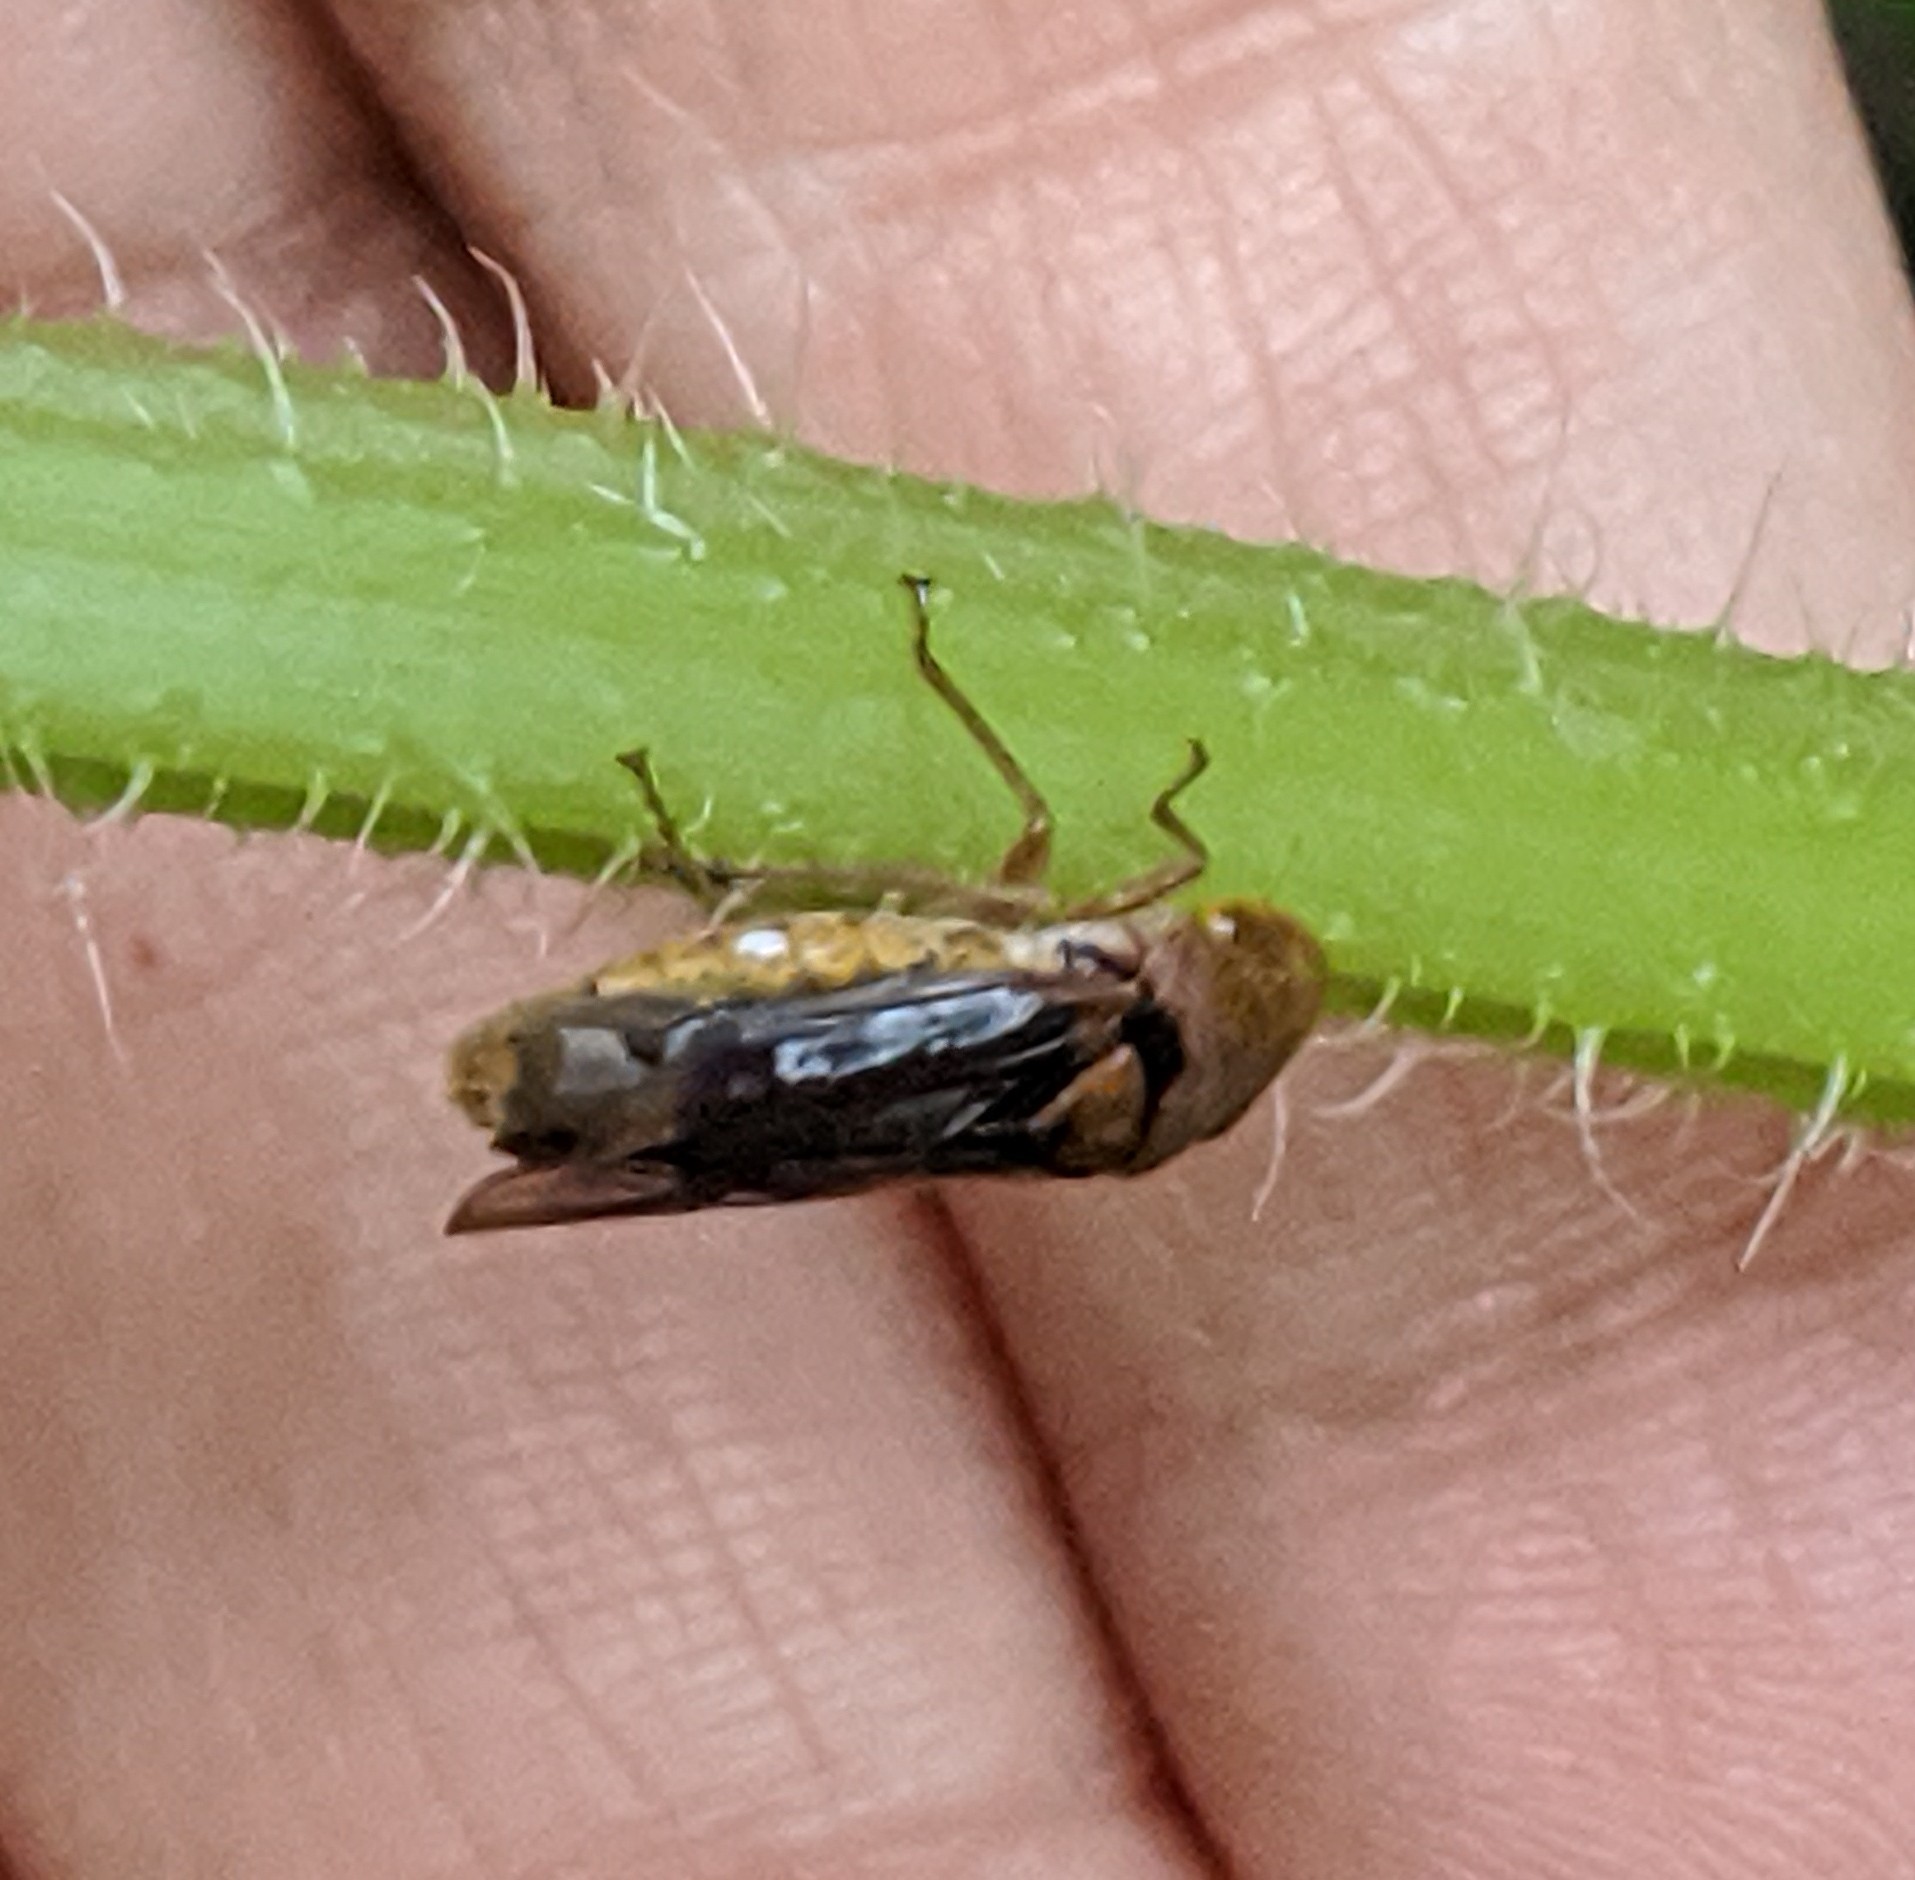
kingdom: Animalia
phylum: Arthropoda
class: Insecta
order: Hemiptera
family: Cicadellidae
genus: Oncometopia
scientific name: Oncometopia
